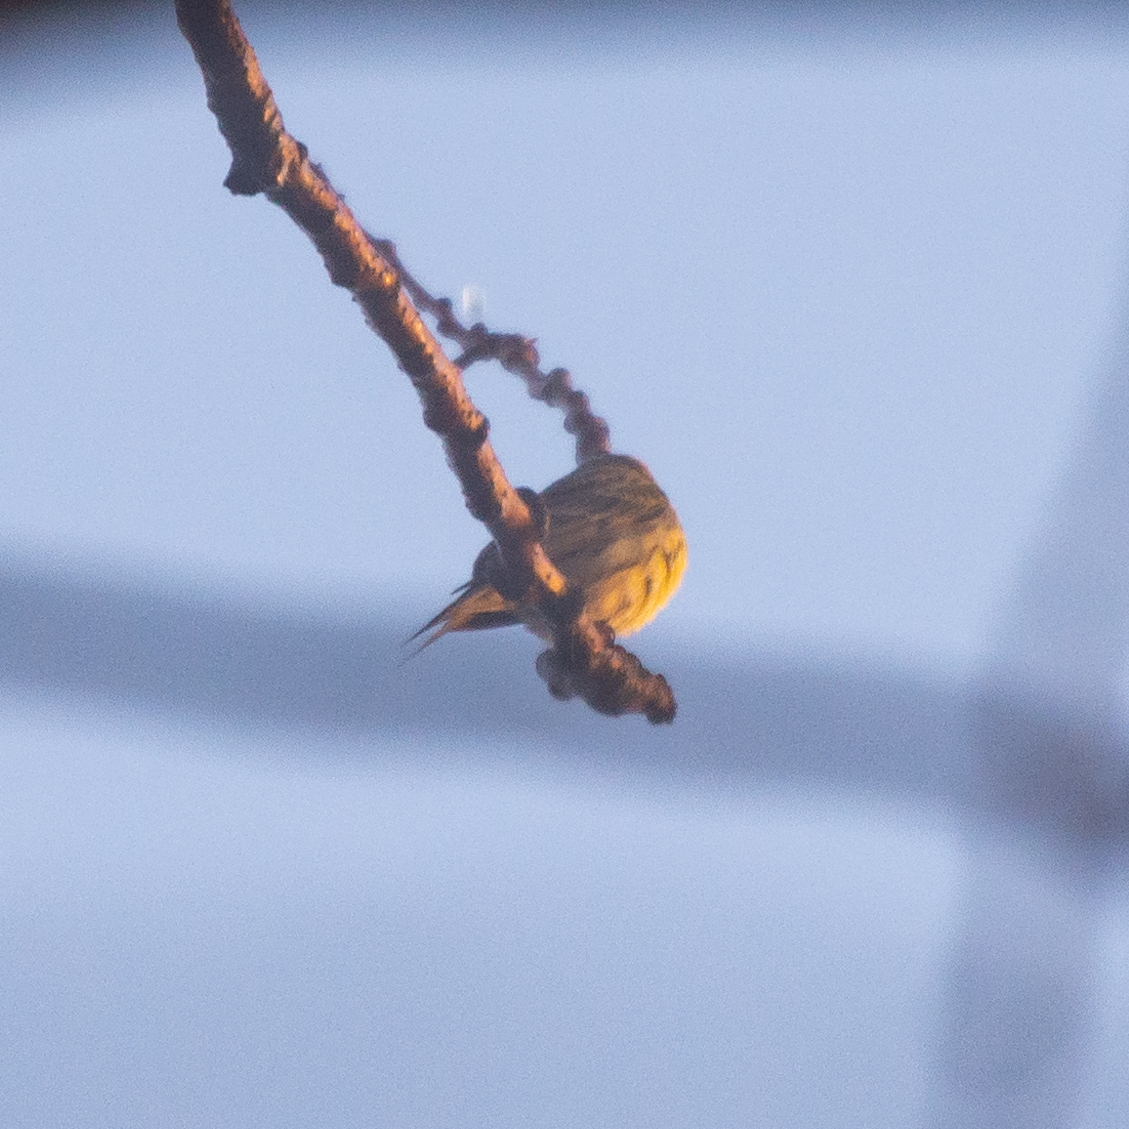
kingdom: Animalia
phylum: Chordata
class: Aves
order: Passeriformes
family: Fringillidae
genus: Serinus
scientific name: Serinus serinus
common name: European serin
